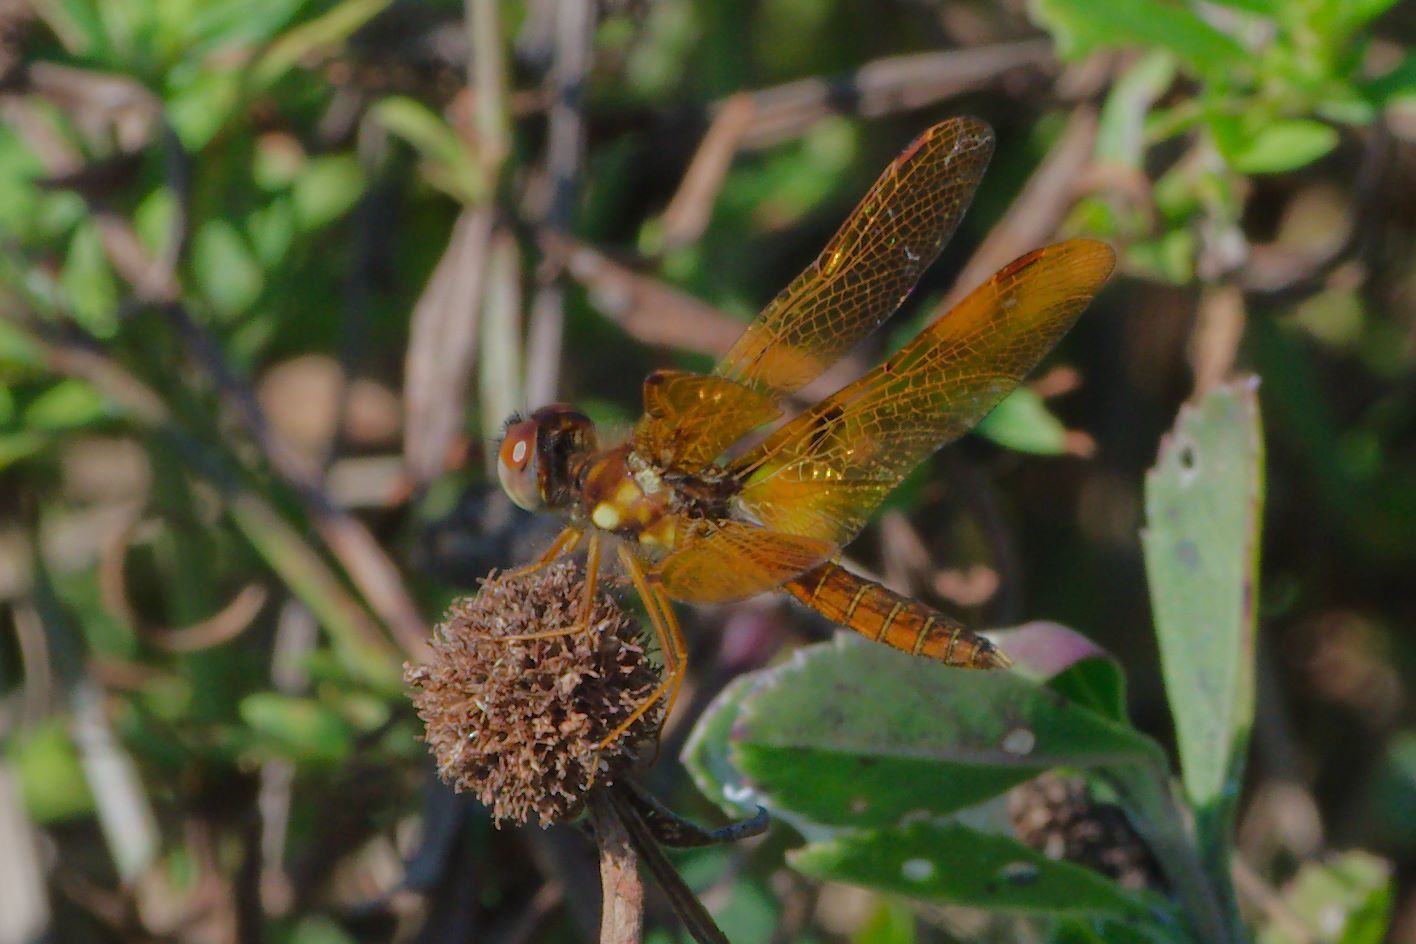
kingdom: Animalia
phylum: Arthropoda
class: Insecta
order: Odonata
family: Libellulidae
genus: Perithemis
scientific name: Perithemis tenera
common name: Eastern amberwing
